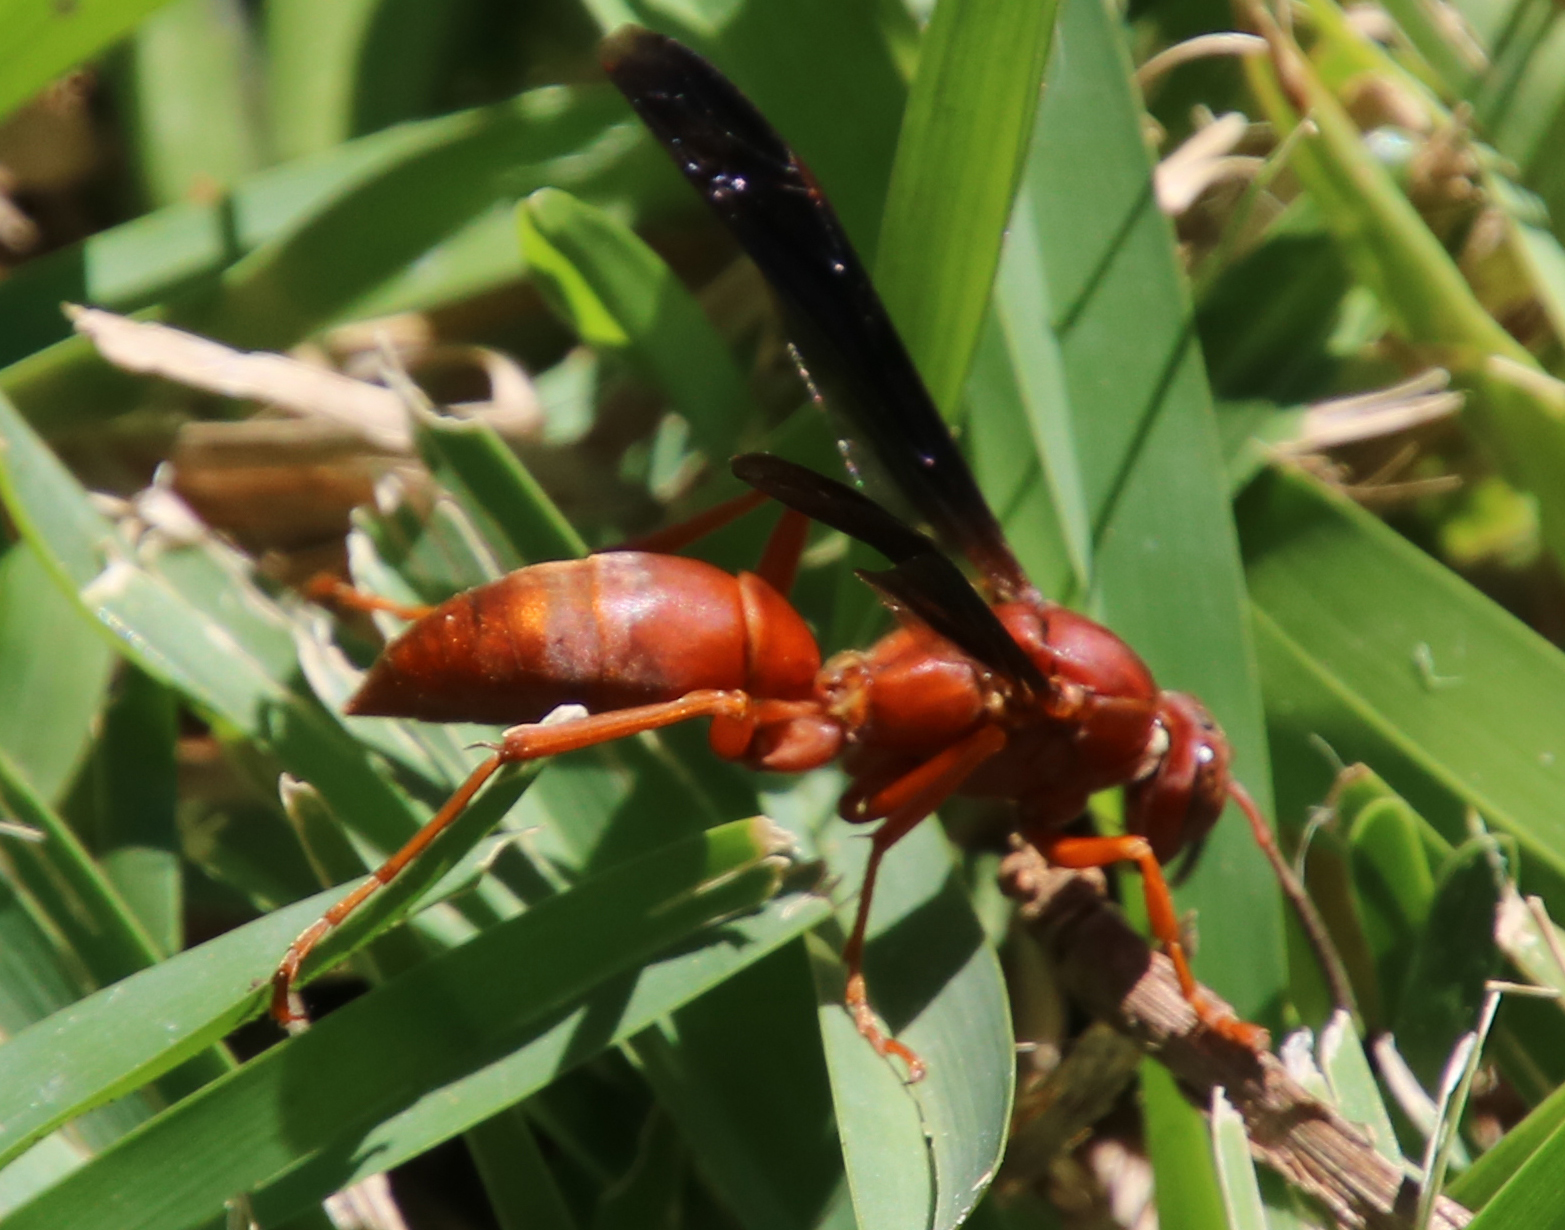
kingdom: Animalia
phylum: Arthropoda
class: Insecta
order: Hymenoptera
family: Vespidae
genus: Fuscopolistes
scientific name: Fuscopolistes
